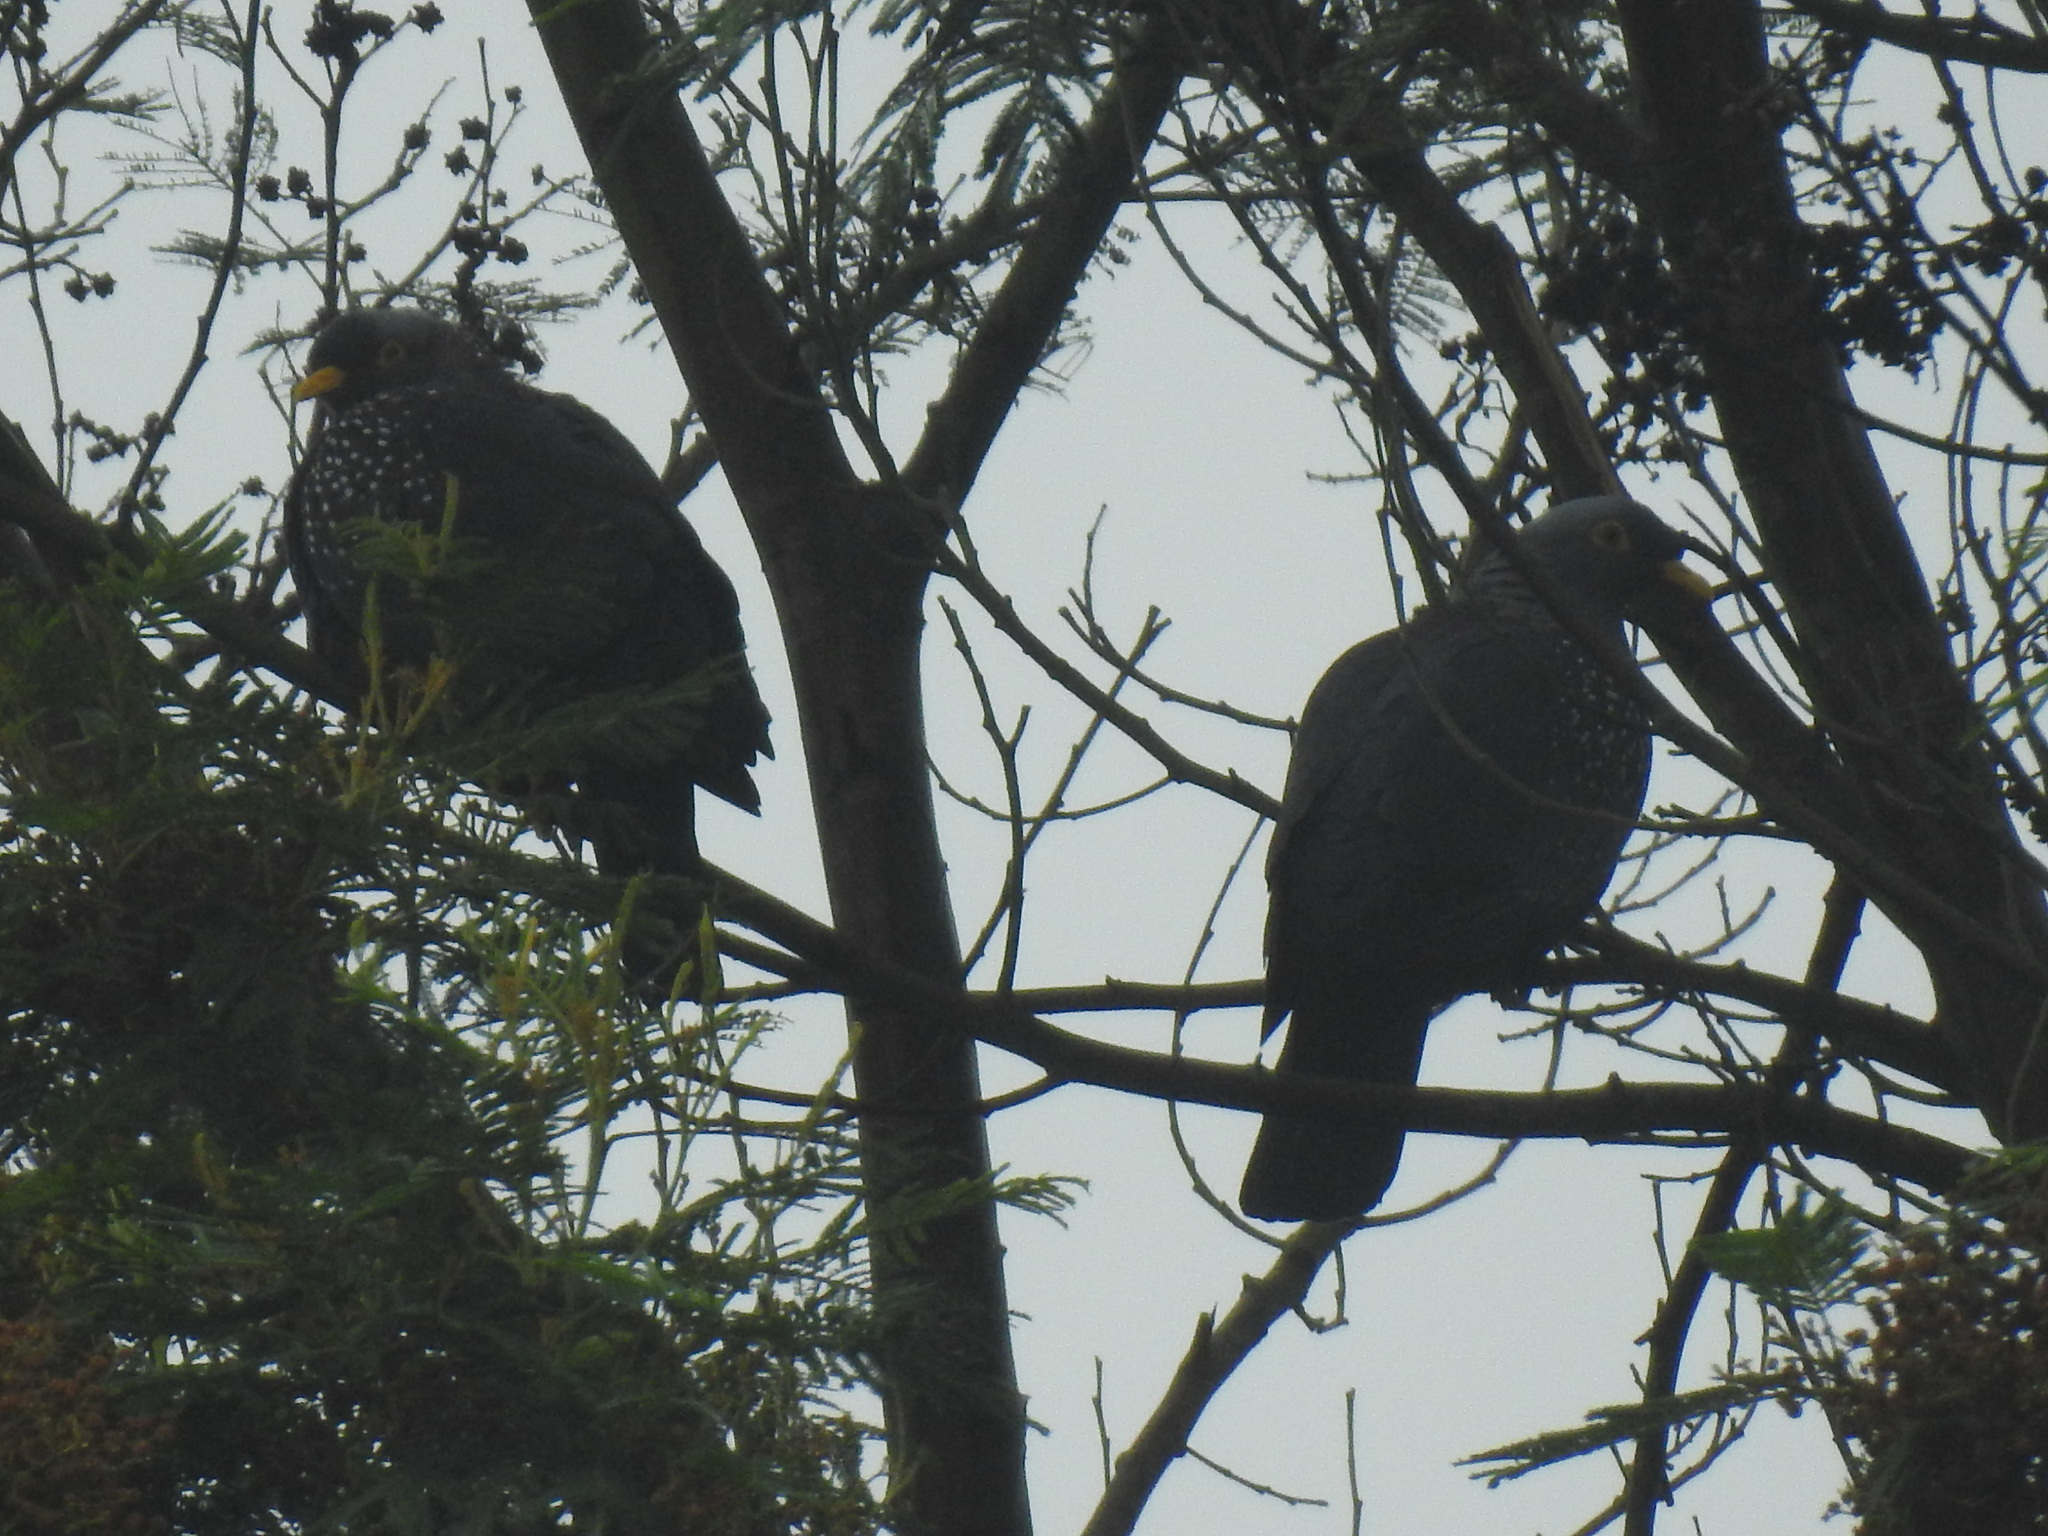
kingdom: Animalia
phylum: Chordata
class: Aves
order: Columbiformes
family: Columbidae
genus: Columba
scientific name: Columba arquatrix
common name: African olive pigeon
